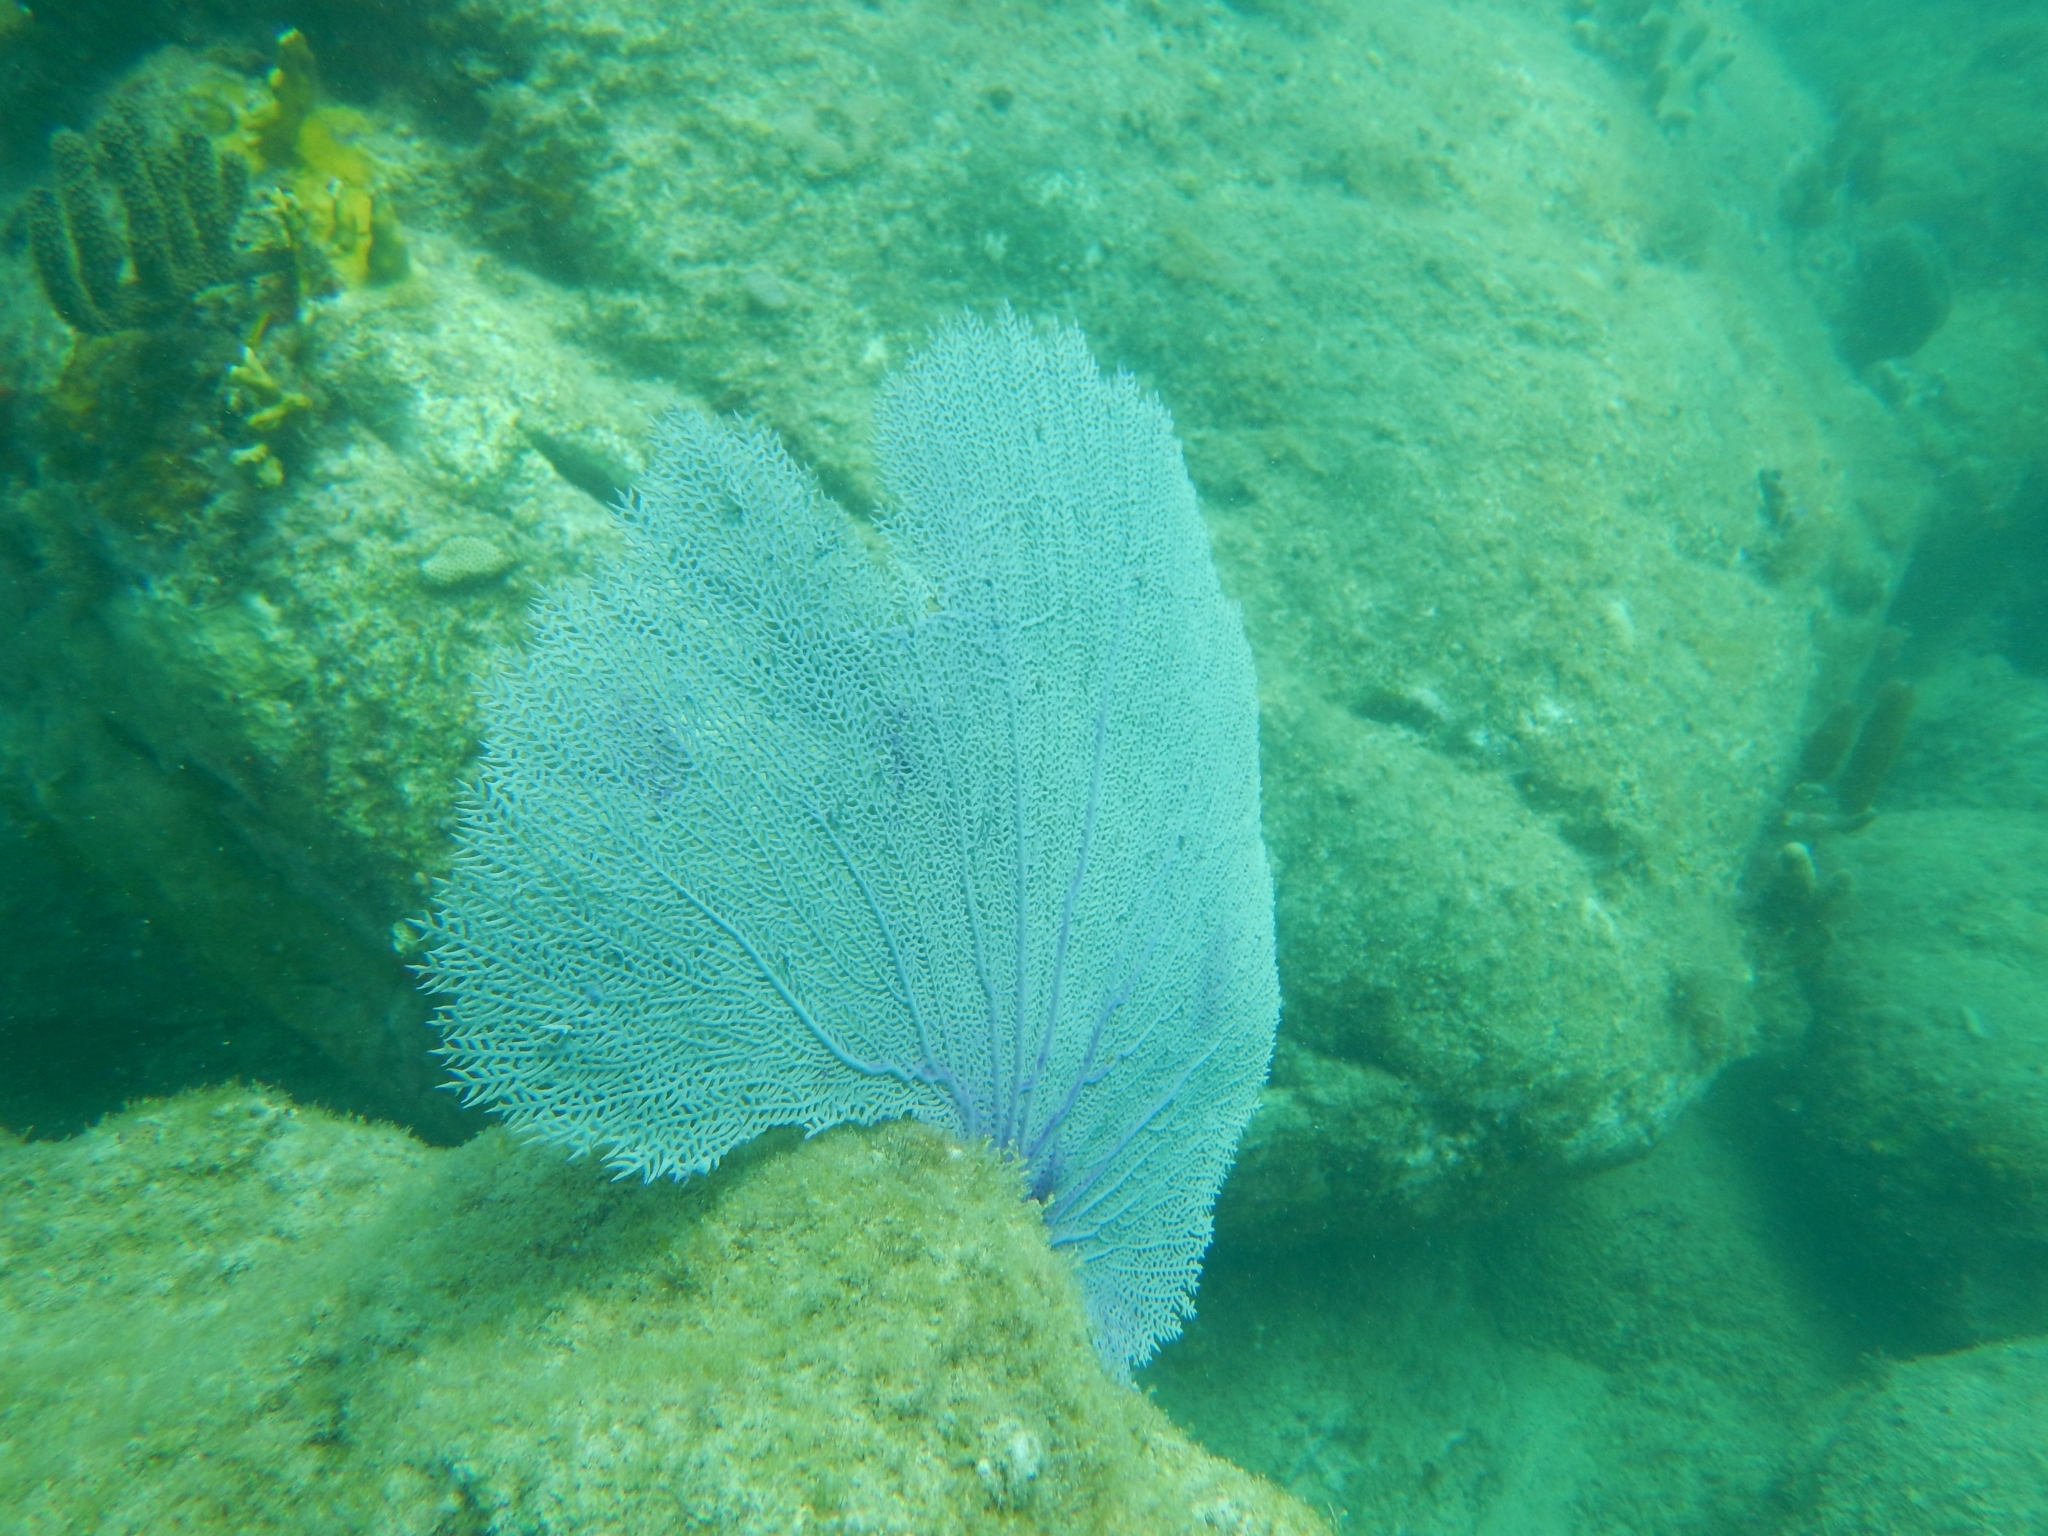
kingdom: Animalia
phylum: Cnidaria
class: Anthozoa
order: Malacalcyonacea
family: Gorgoniidae
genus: Gorgonia
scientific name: Gorgonia ventalina
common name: Common sea fan
